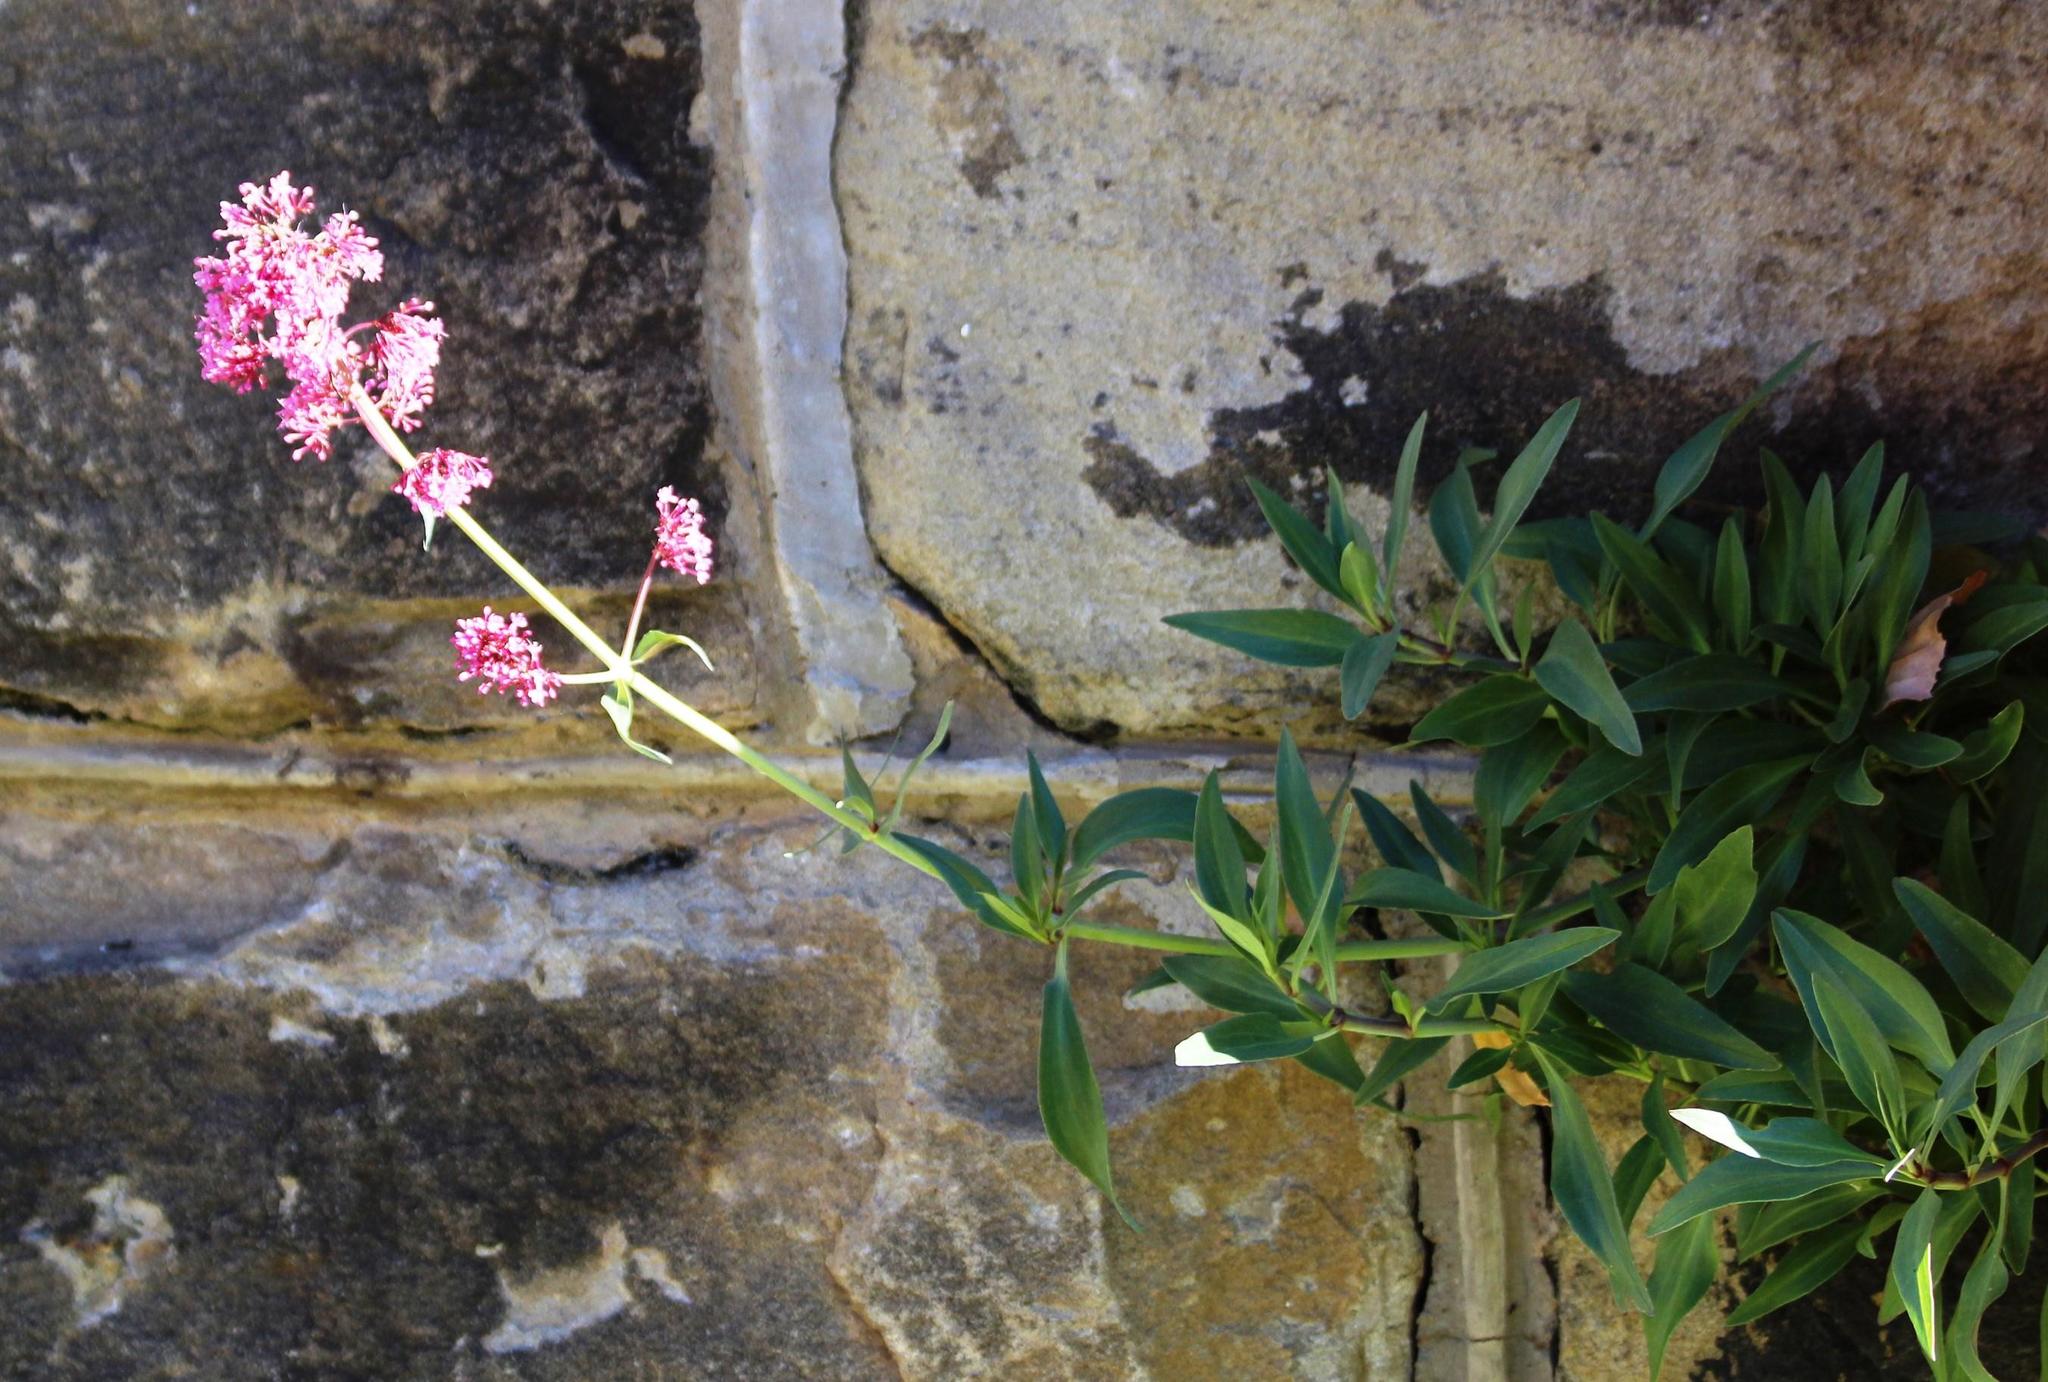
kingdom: Plantae
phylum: Tracheophyta
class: Magnoliopsida
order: Dipsacales
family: Caprifoliaceae
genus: Centranthus
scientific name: Centranthus ruber
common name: Red valerian
